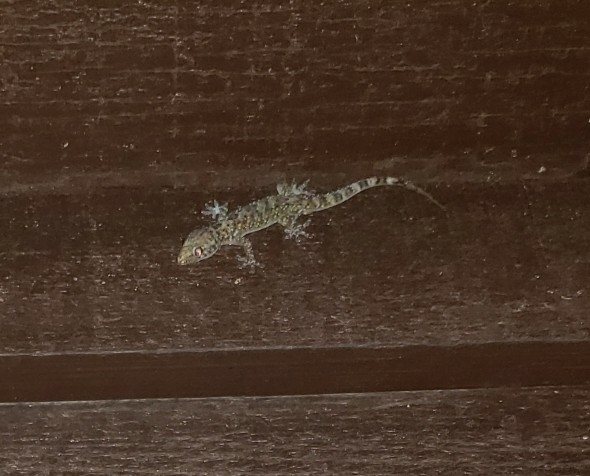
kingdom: Animalia
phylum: Chordata
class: Squamata
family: Gekkonidae
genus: Hemidactylus
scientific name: Hemidactylus turcicus
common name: Turkish gecko
